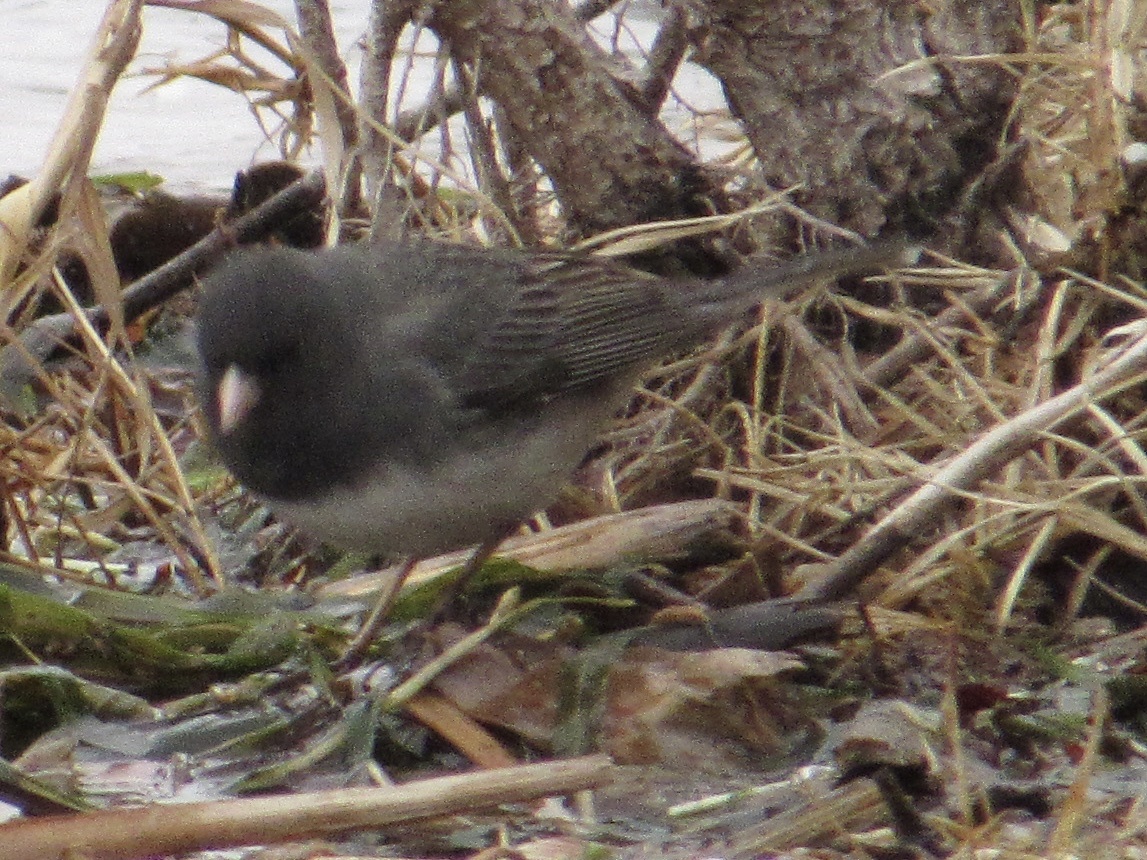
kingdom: Animalia
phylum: Chordata
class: Aves
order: Passeriformes
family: Passerellidae
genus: Junco
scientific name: Junco hyemalis
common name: Dark-eyed junco
